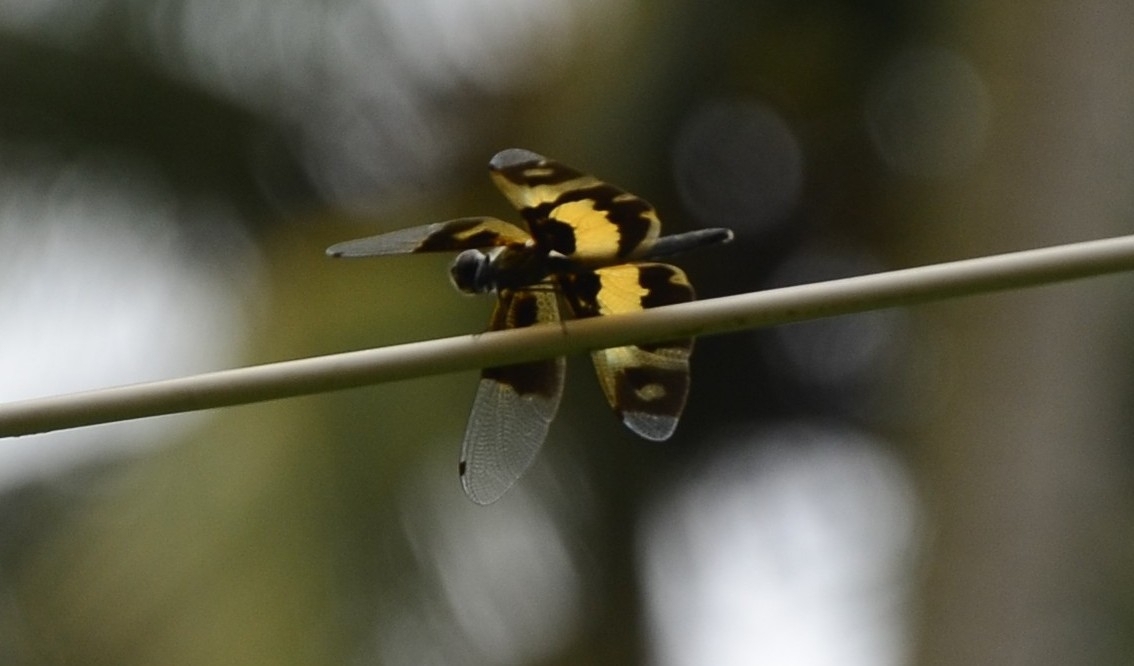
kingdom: Animalia
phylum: Arthropoda
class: Insecta
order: Odonata
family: Libellulidae
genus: Rhyothemis
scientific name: Rhyothemis variegata
